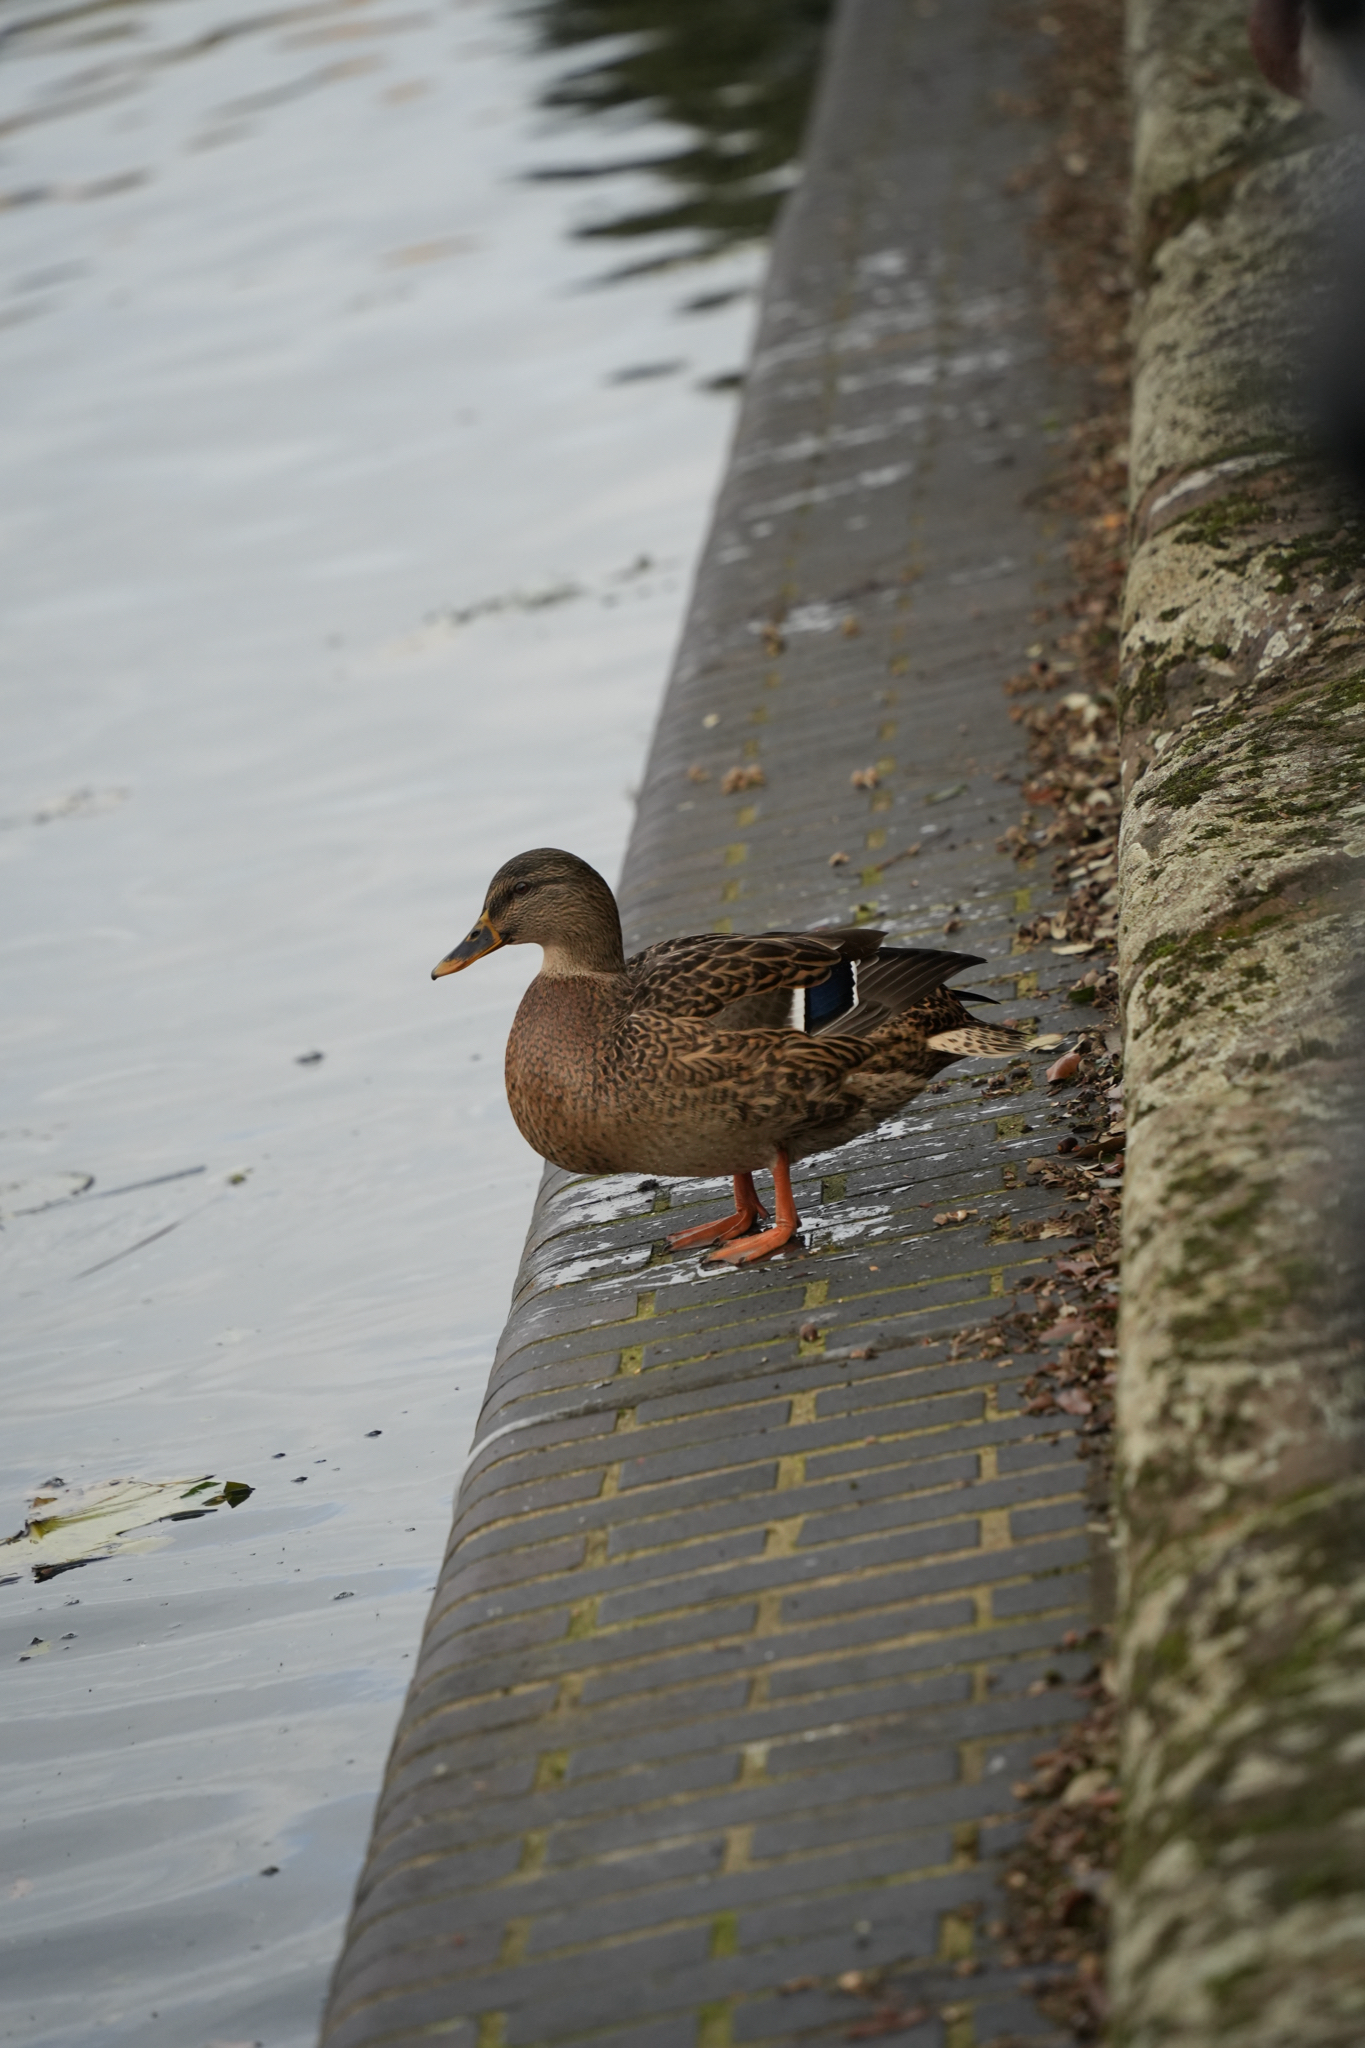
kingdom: Animalia
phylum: Chordata
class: Aves
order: Anseriformes
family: Anatidae
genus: Anas
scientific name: Anas platyrhynchos
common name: Mallard
